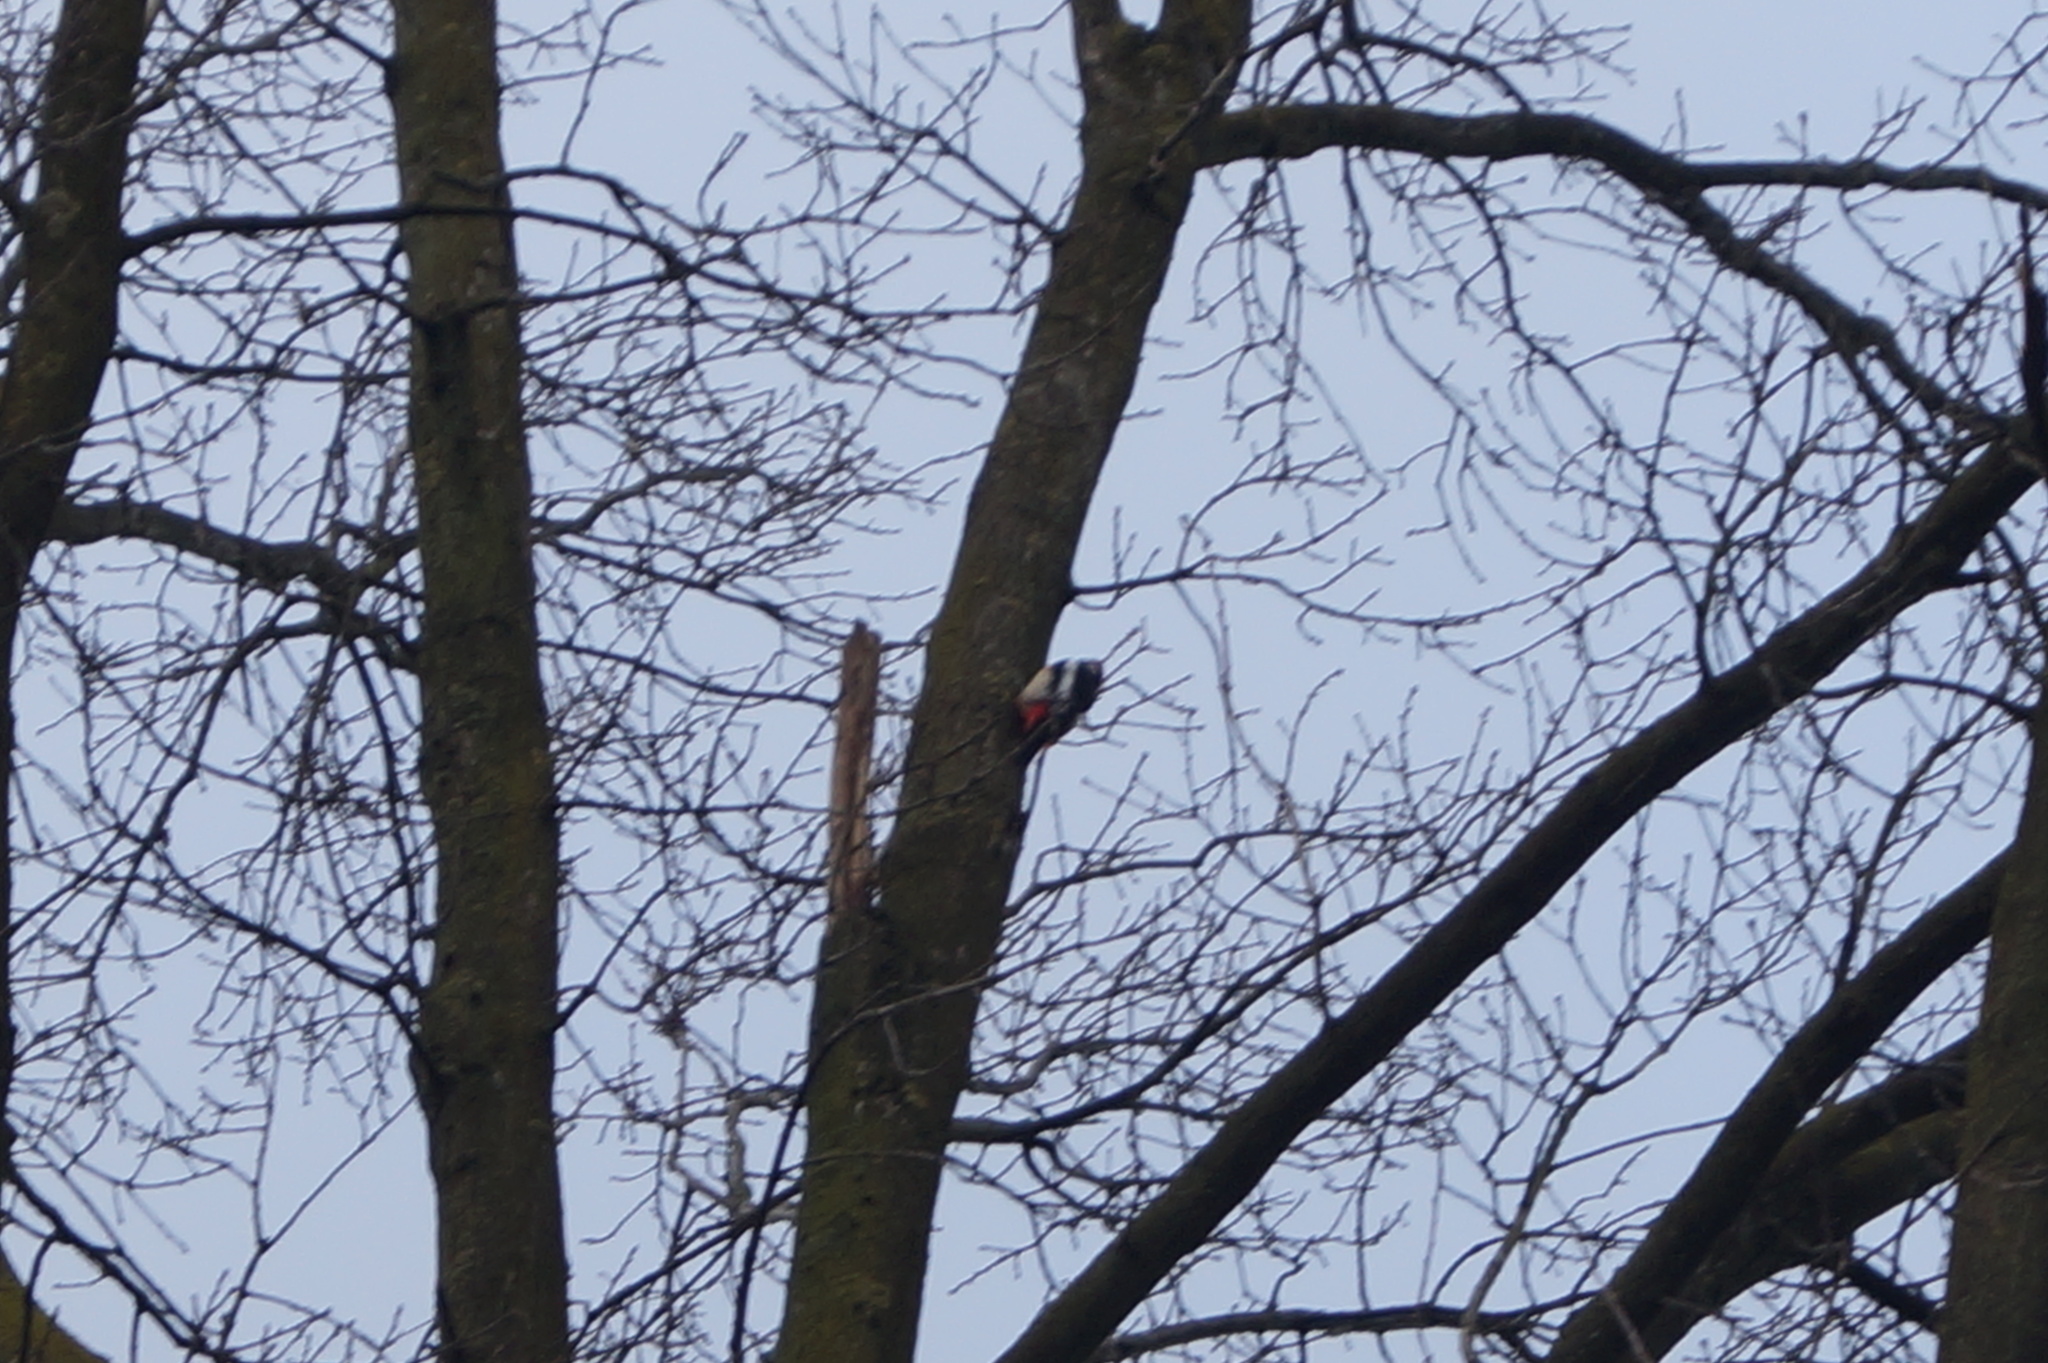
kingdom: Animalia
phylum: Chordata
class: Aves
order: Piciformes
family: Picidae
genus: Dendrocopos
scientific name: Dendrocopos major
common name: Great spotted woodpecker
